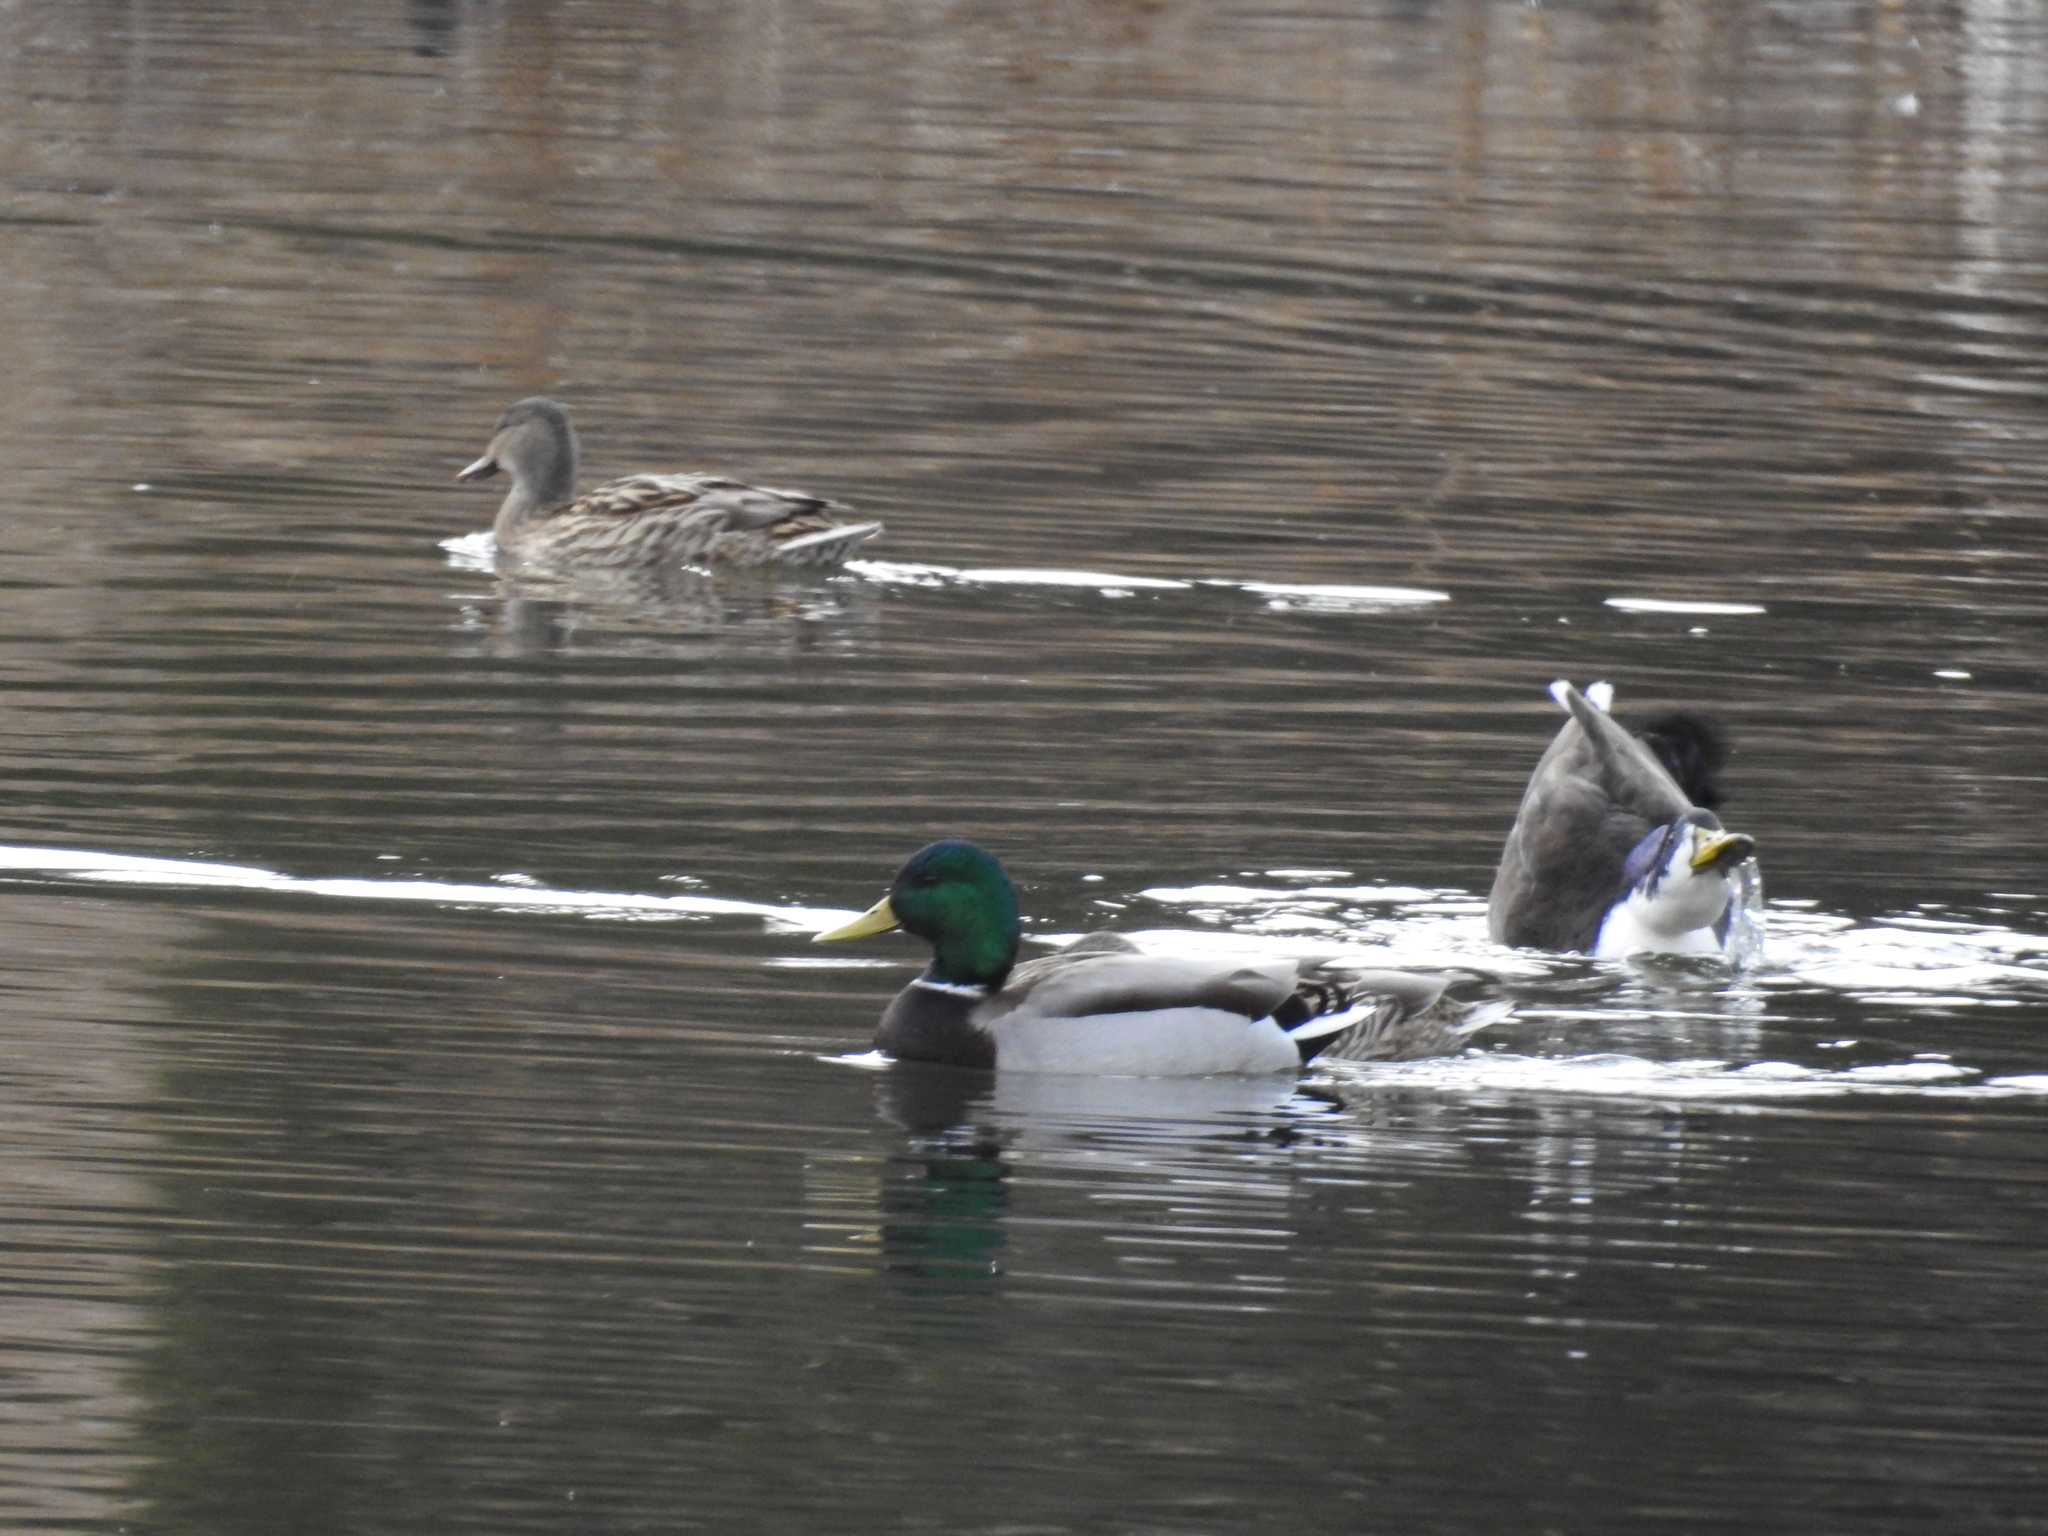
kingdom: Animalia
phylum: Chordata
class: Aves
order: Anseriformes
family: Anatidae
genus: Anas
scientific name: Anas platyrhynchos
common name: Mallard
